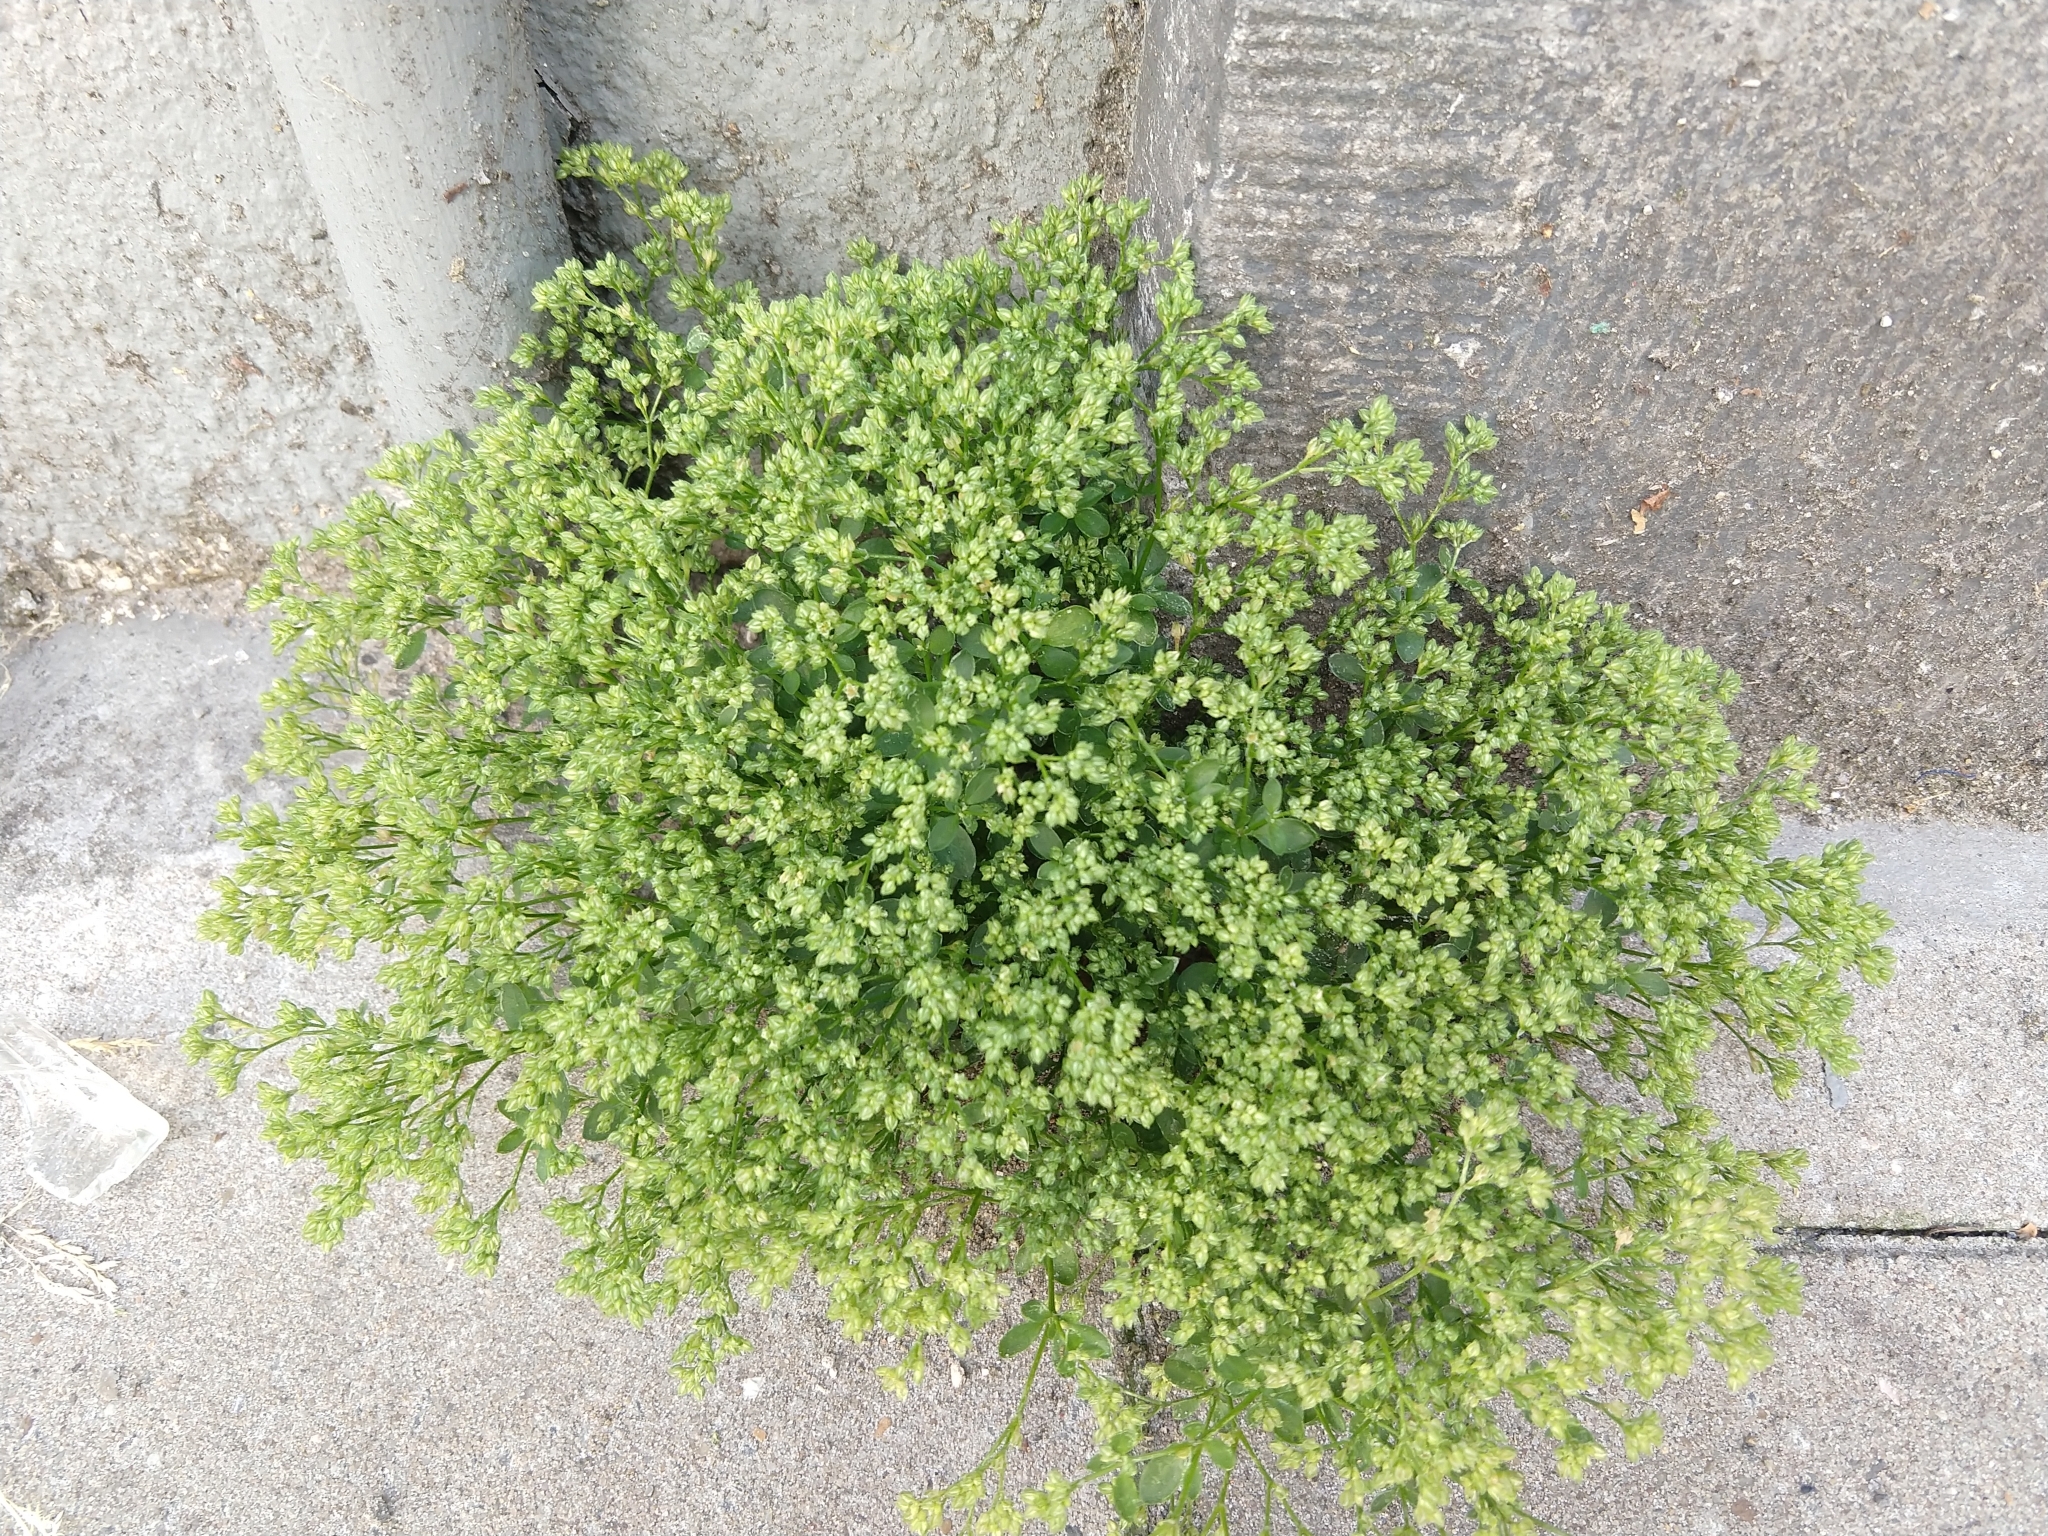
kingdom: Plantae
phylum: Tracheophyta
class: Magnoliopsida
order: Caryophyllales
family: Caryophyllaceae
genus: Polycarpon
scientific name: Polycarpon tetraphyllum
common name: Four-leaved all-seed
